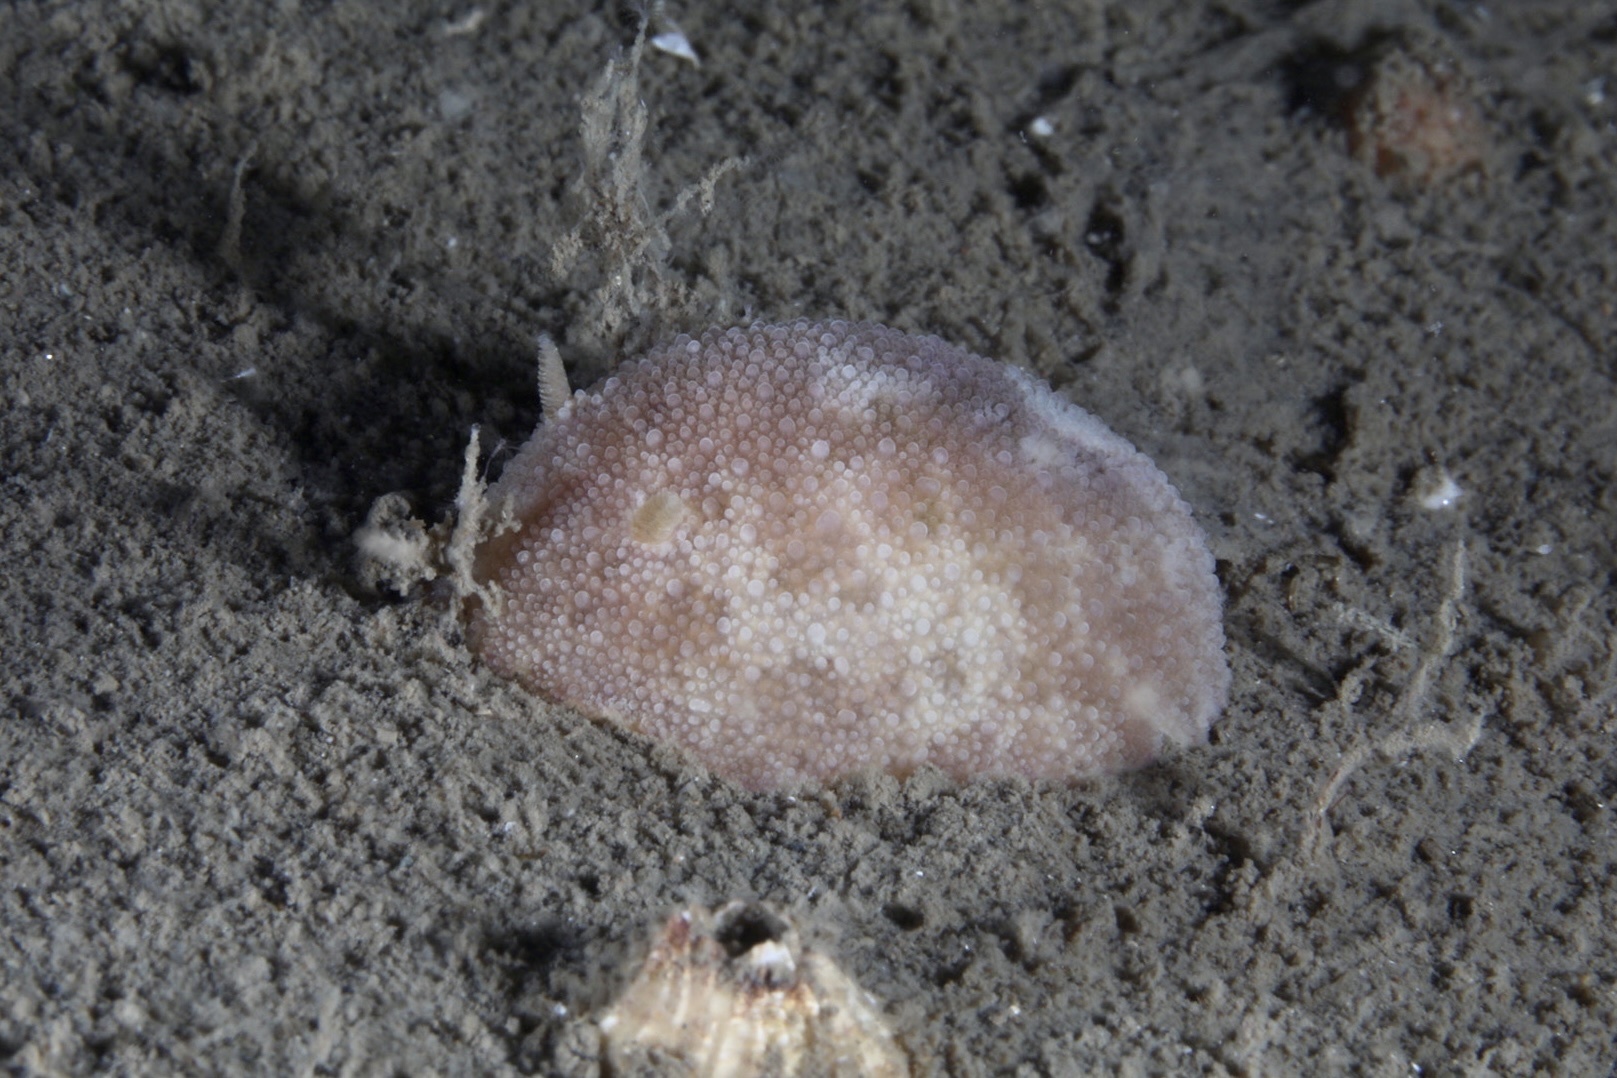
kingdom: Animalia
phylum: Mollusca
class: Gastropoda
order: Nudibranchia
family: Dorididae
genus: Doris
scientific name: Doris pseudoargus
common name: Sea lemon
